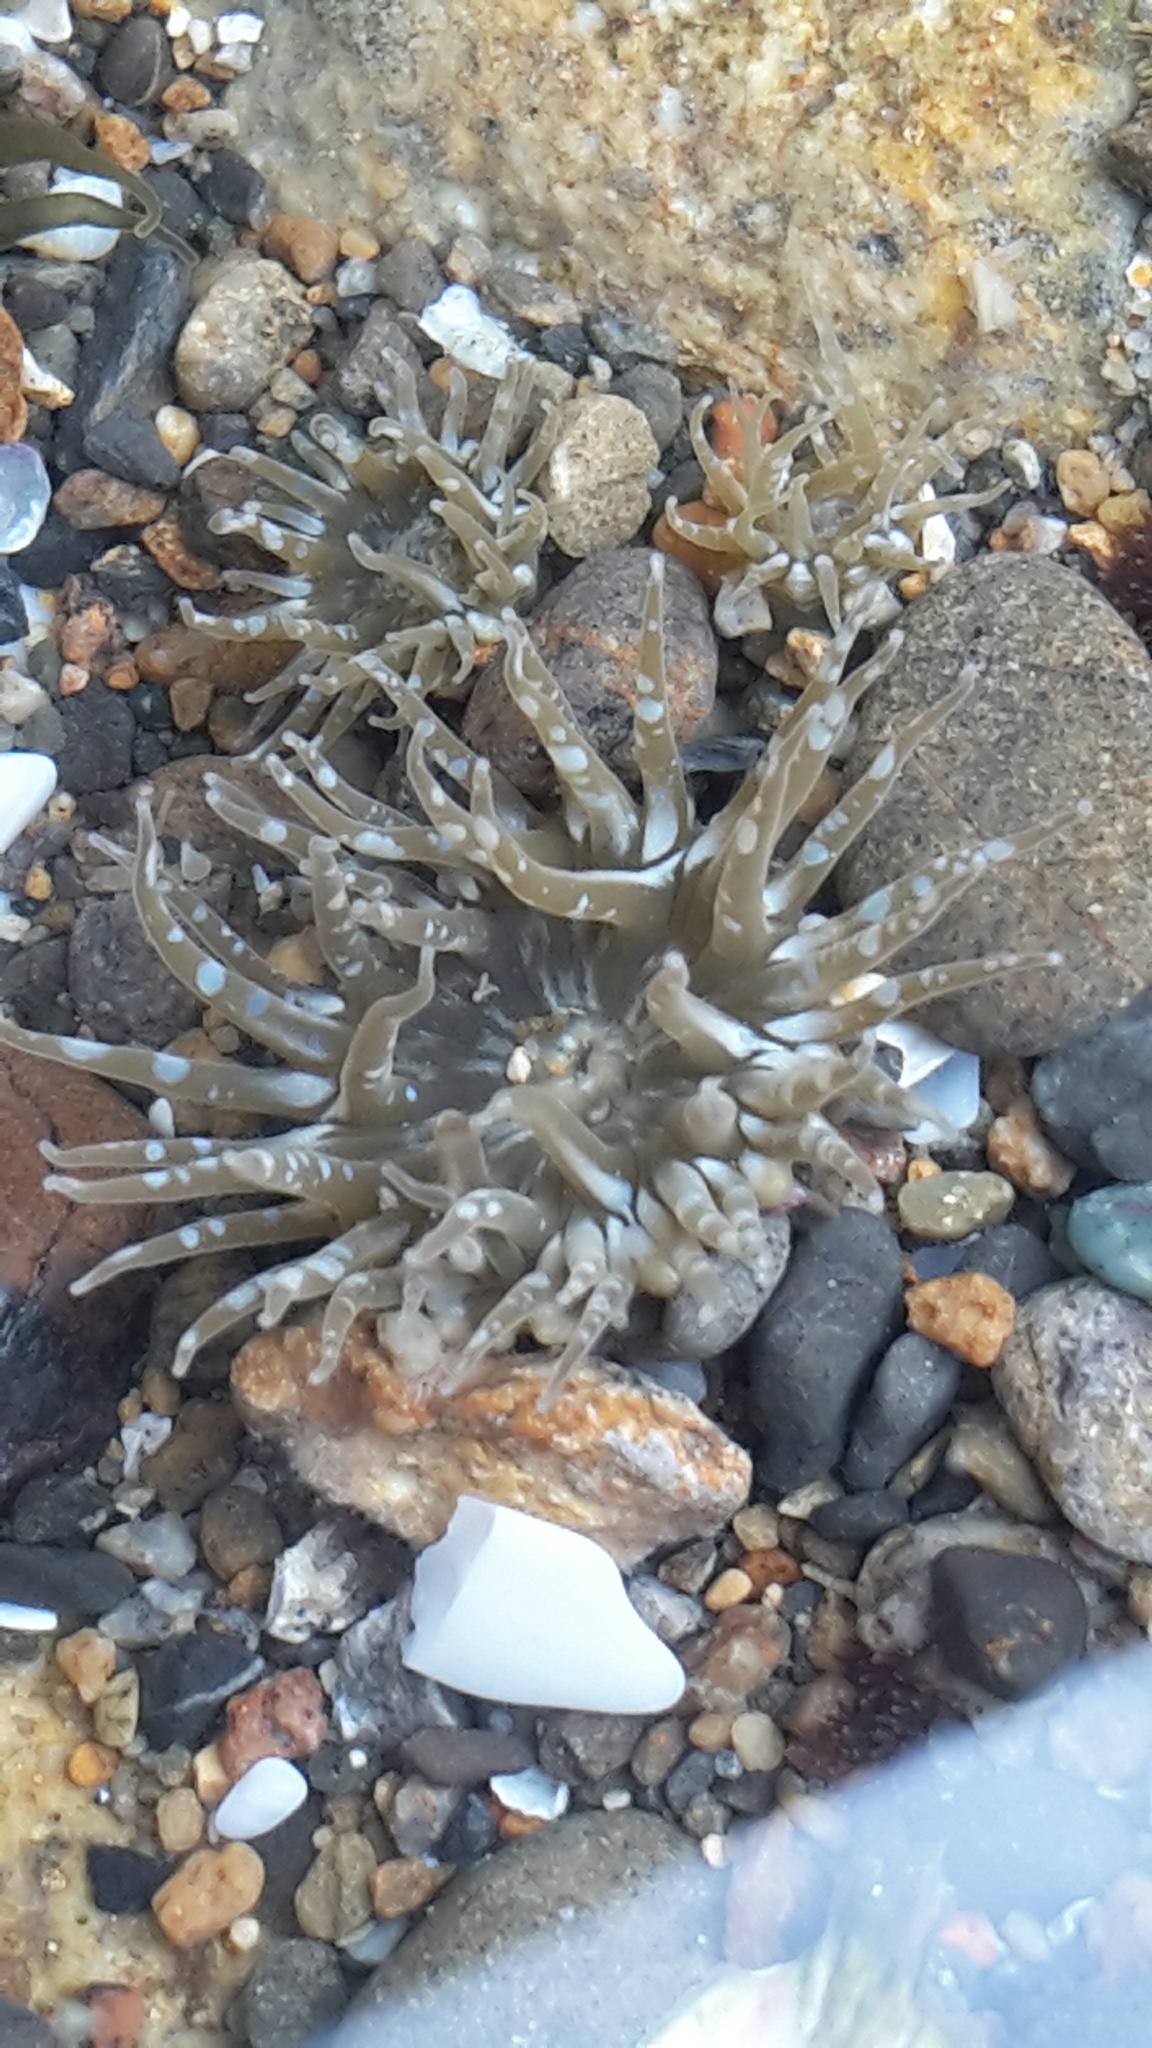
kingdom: Animalia
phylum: Cnidaria
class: Anthozoa
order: Actiniaria
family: Actiniidae
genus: Anthopleura
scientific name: Anthopleura hermaphroditica
